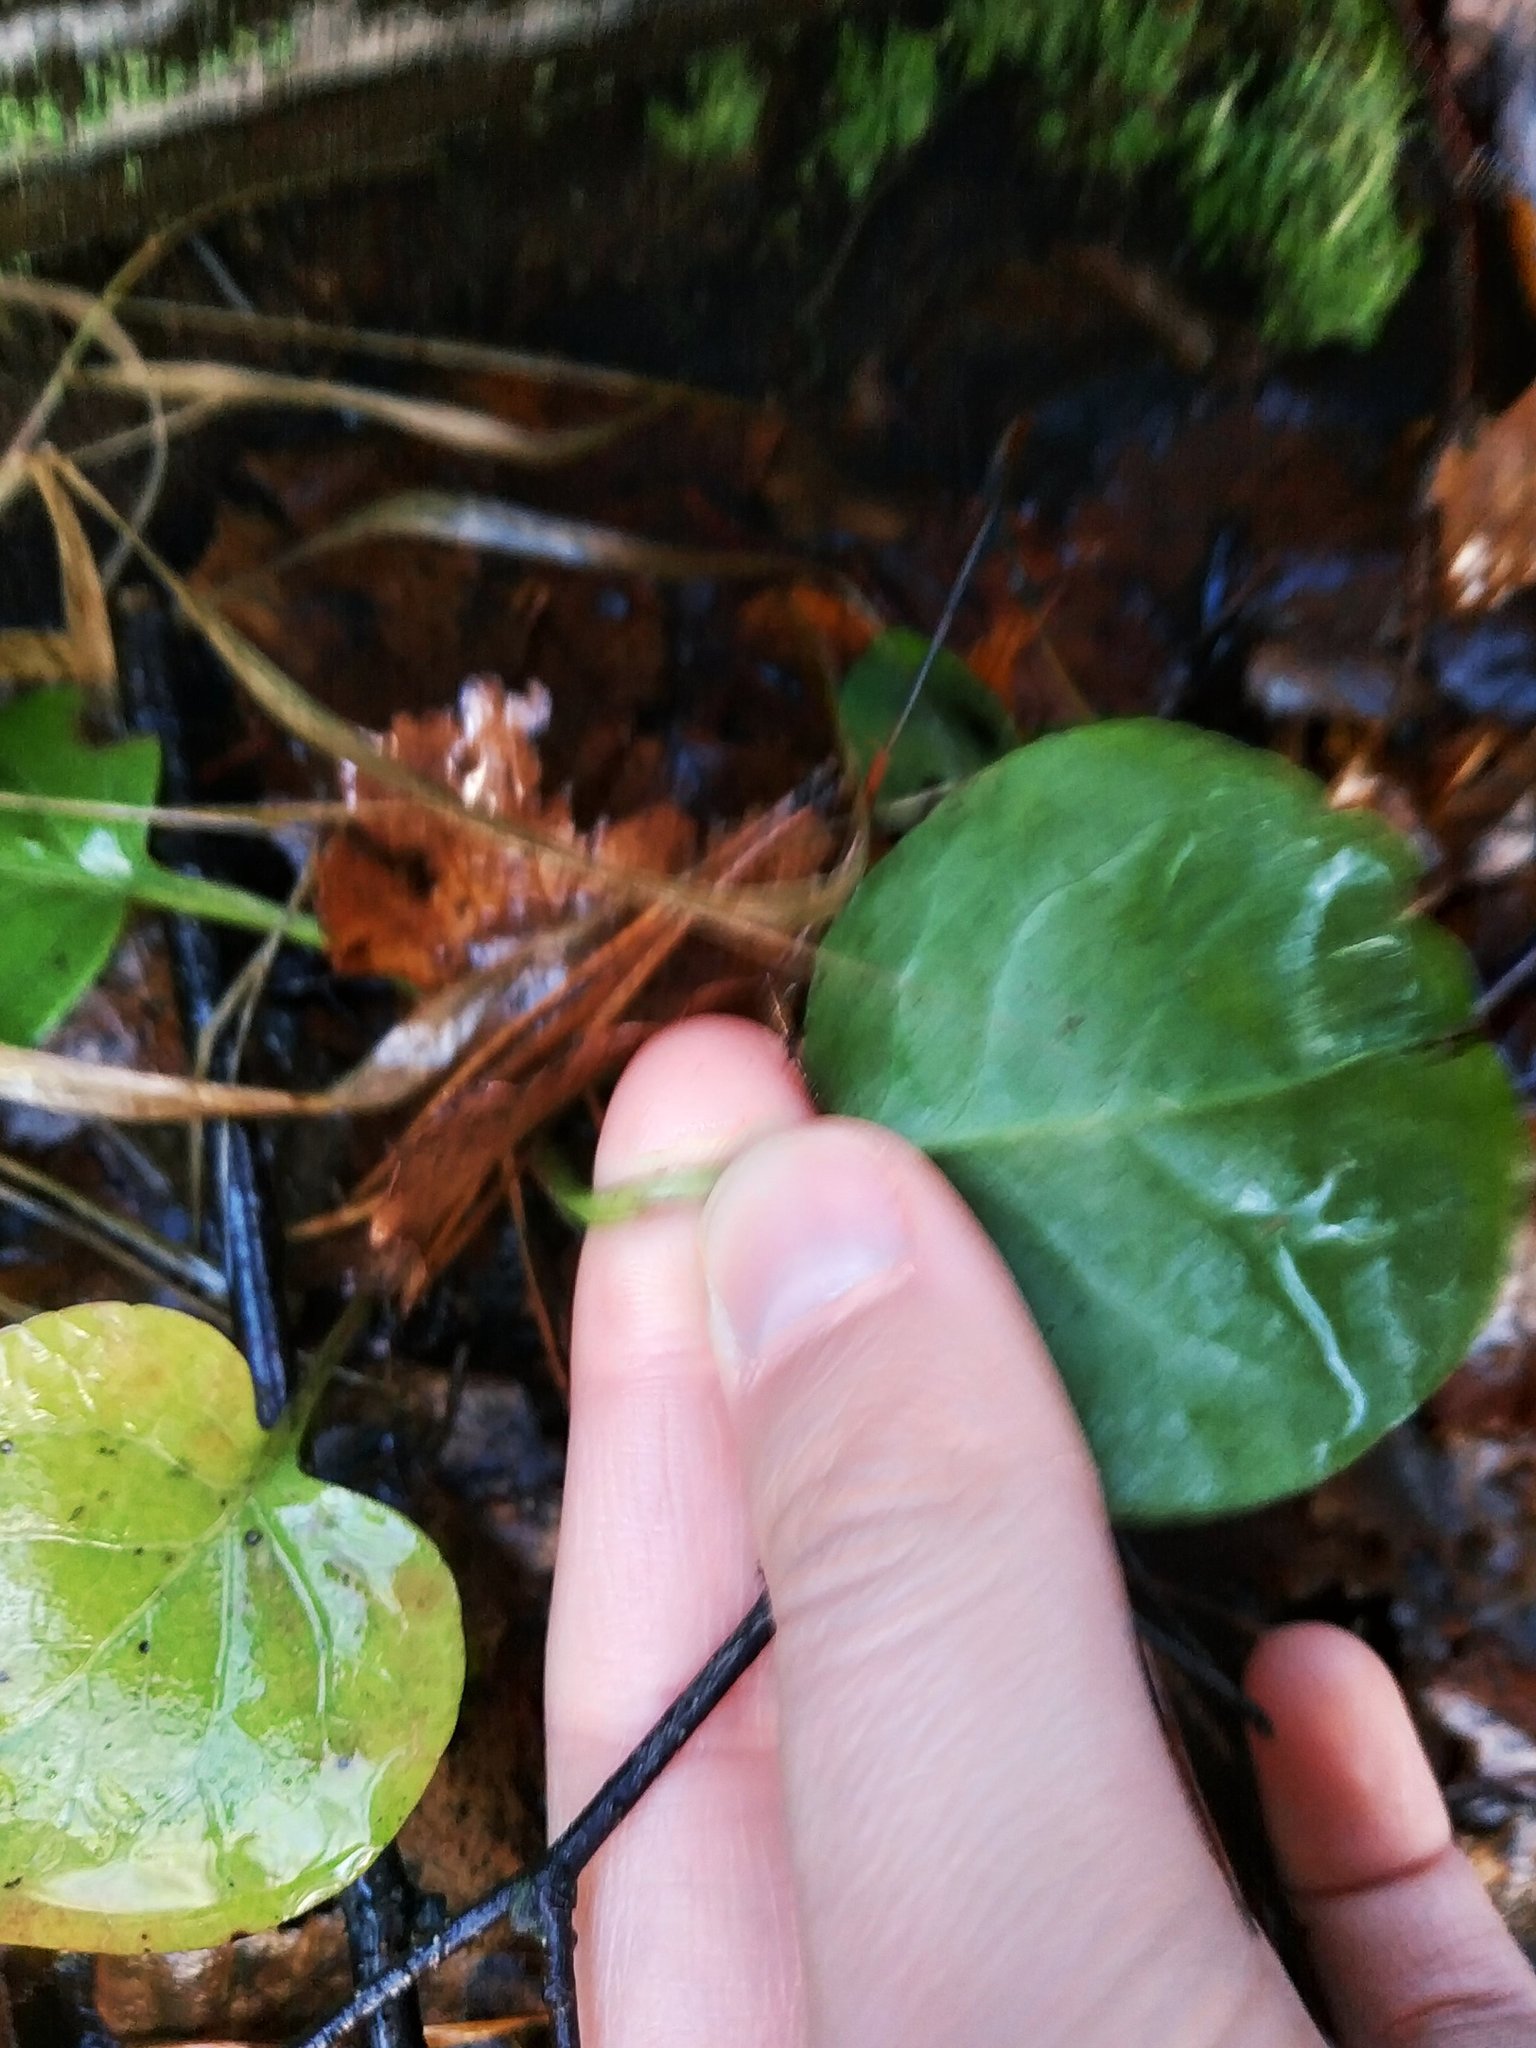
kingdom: Plantae
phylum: Tracheophyta
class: Magnoliopsida
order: Ericales
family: Ericaceae
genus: Pyrola
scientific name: Pyrola
